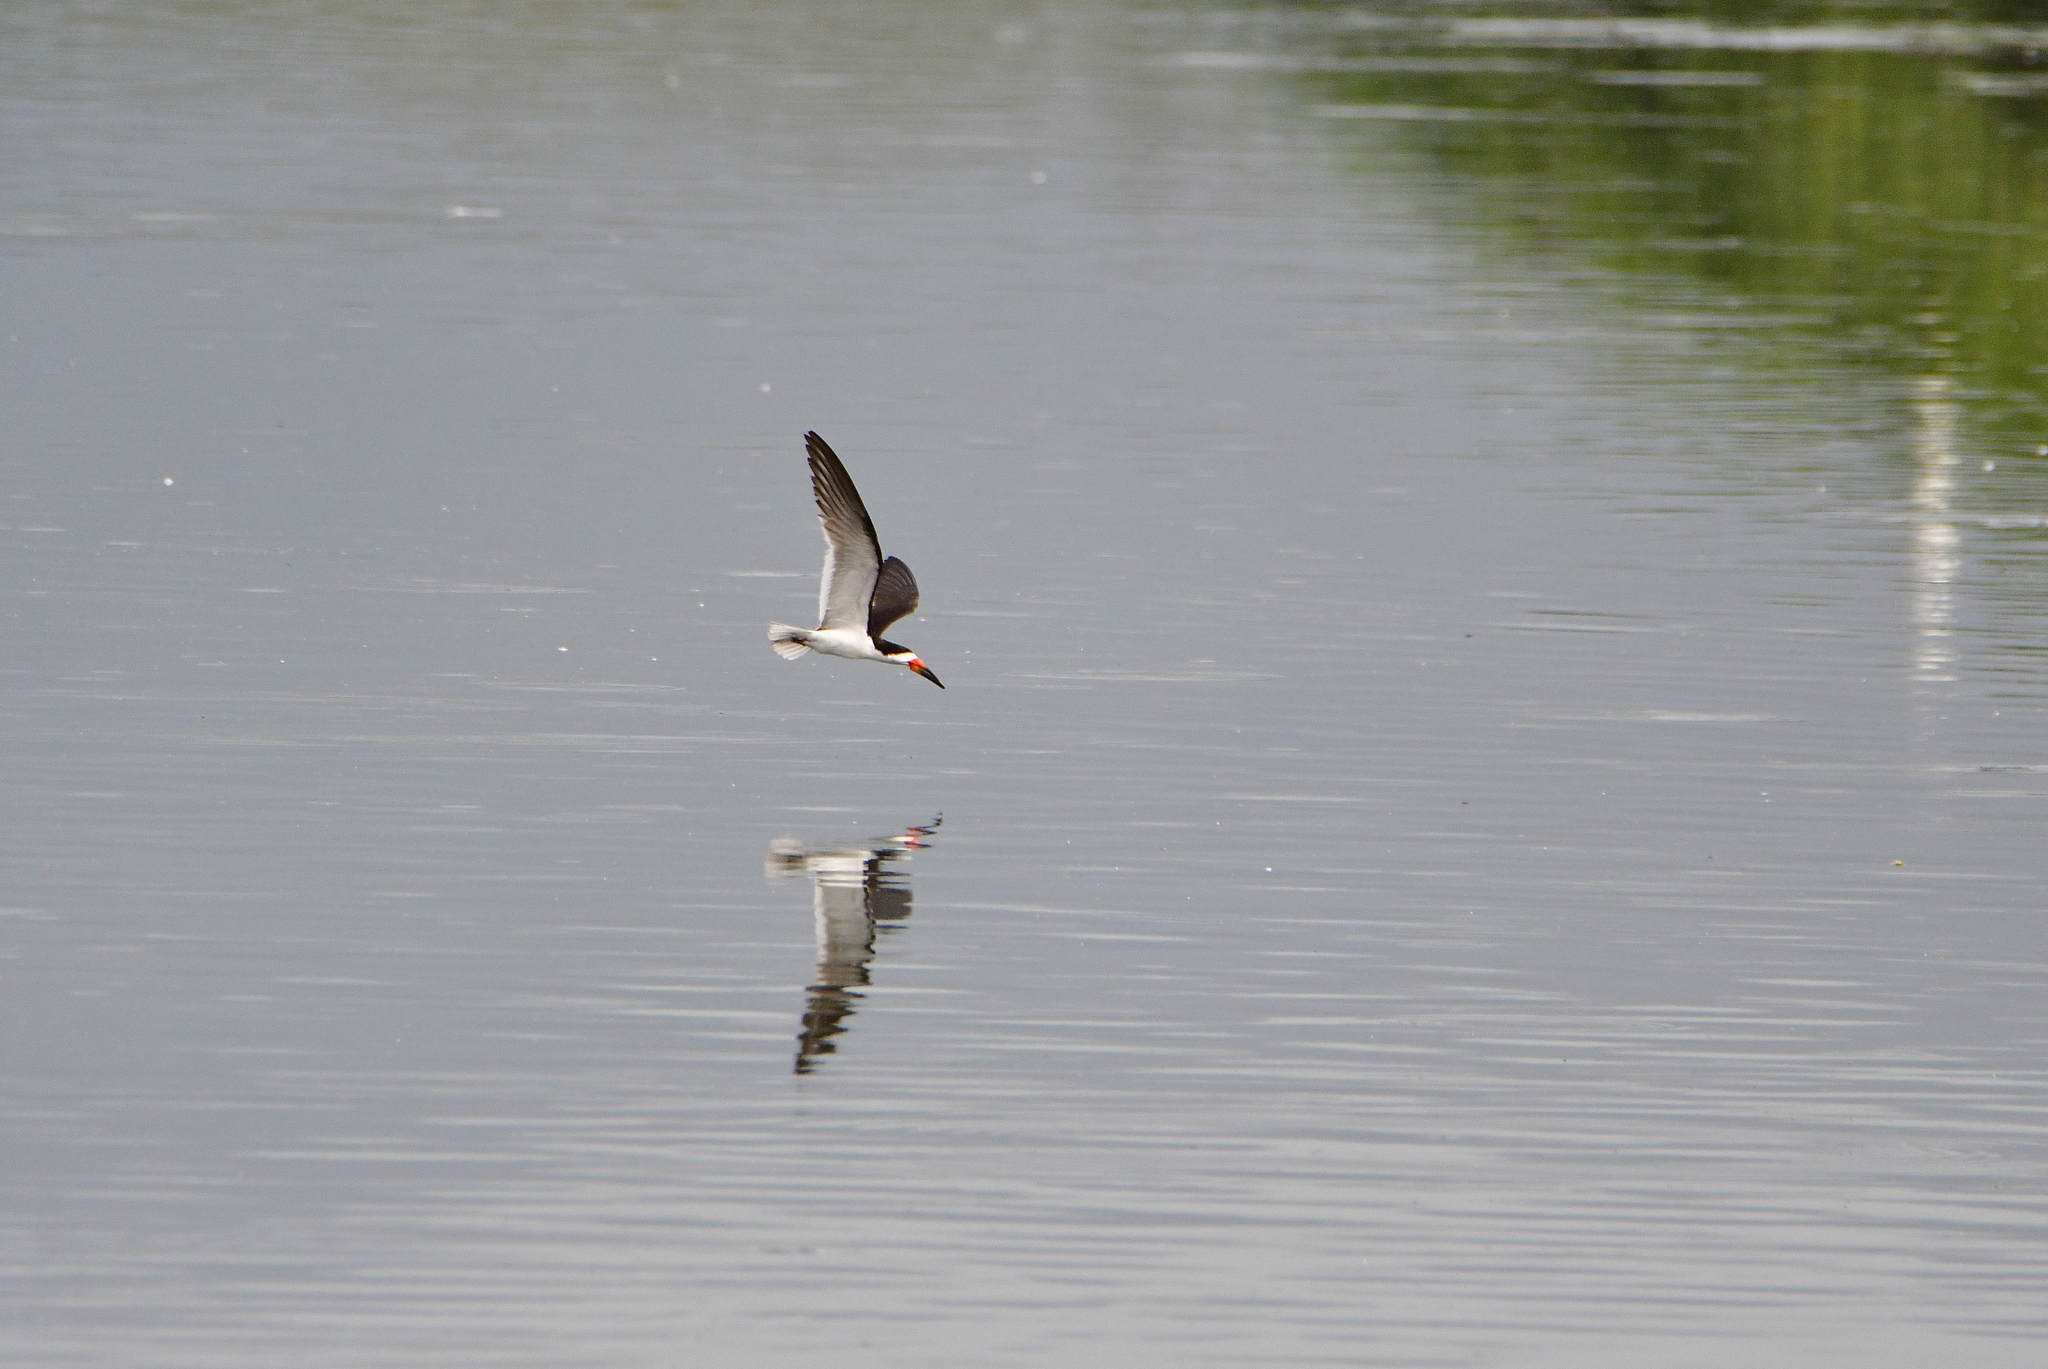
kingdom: Animalia
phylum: Chordata
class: Aves
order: Charadriiformes
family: Laridae
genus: Rynchops
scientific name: Rynchops niger
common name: Black skimmer
